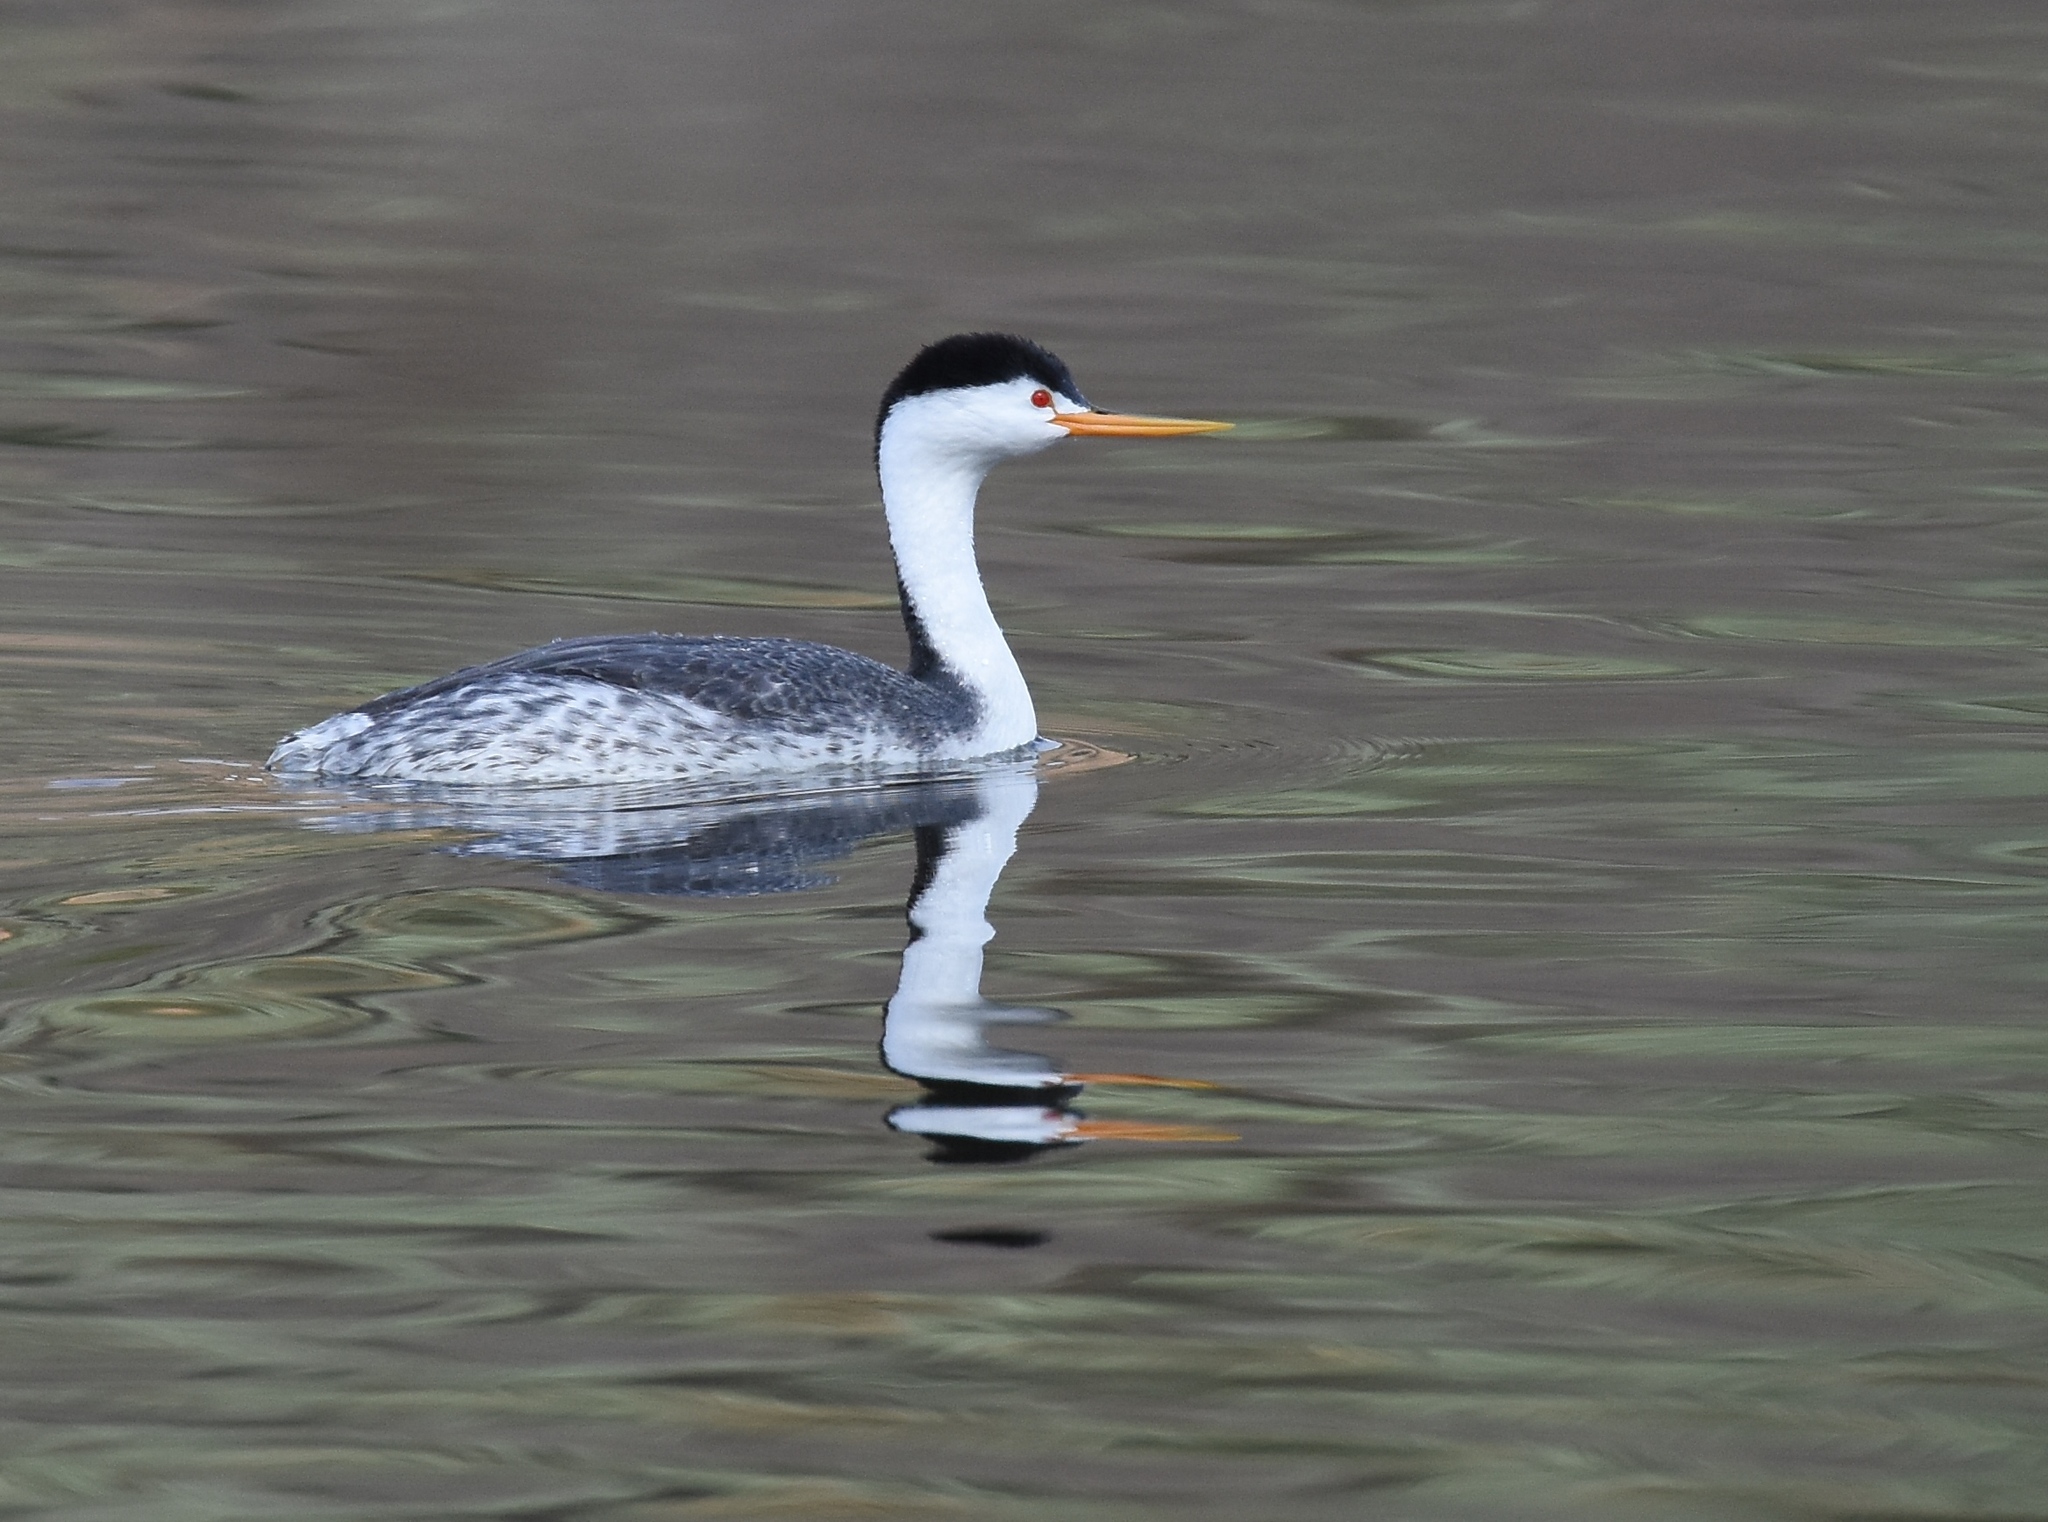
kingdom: Animalia
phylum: Chordata
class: Aves
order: Podicipediformes
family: Podicipedidae
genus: Aechmophorus
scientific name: Aechmophorus clarkii
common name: Clark's grebe
